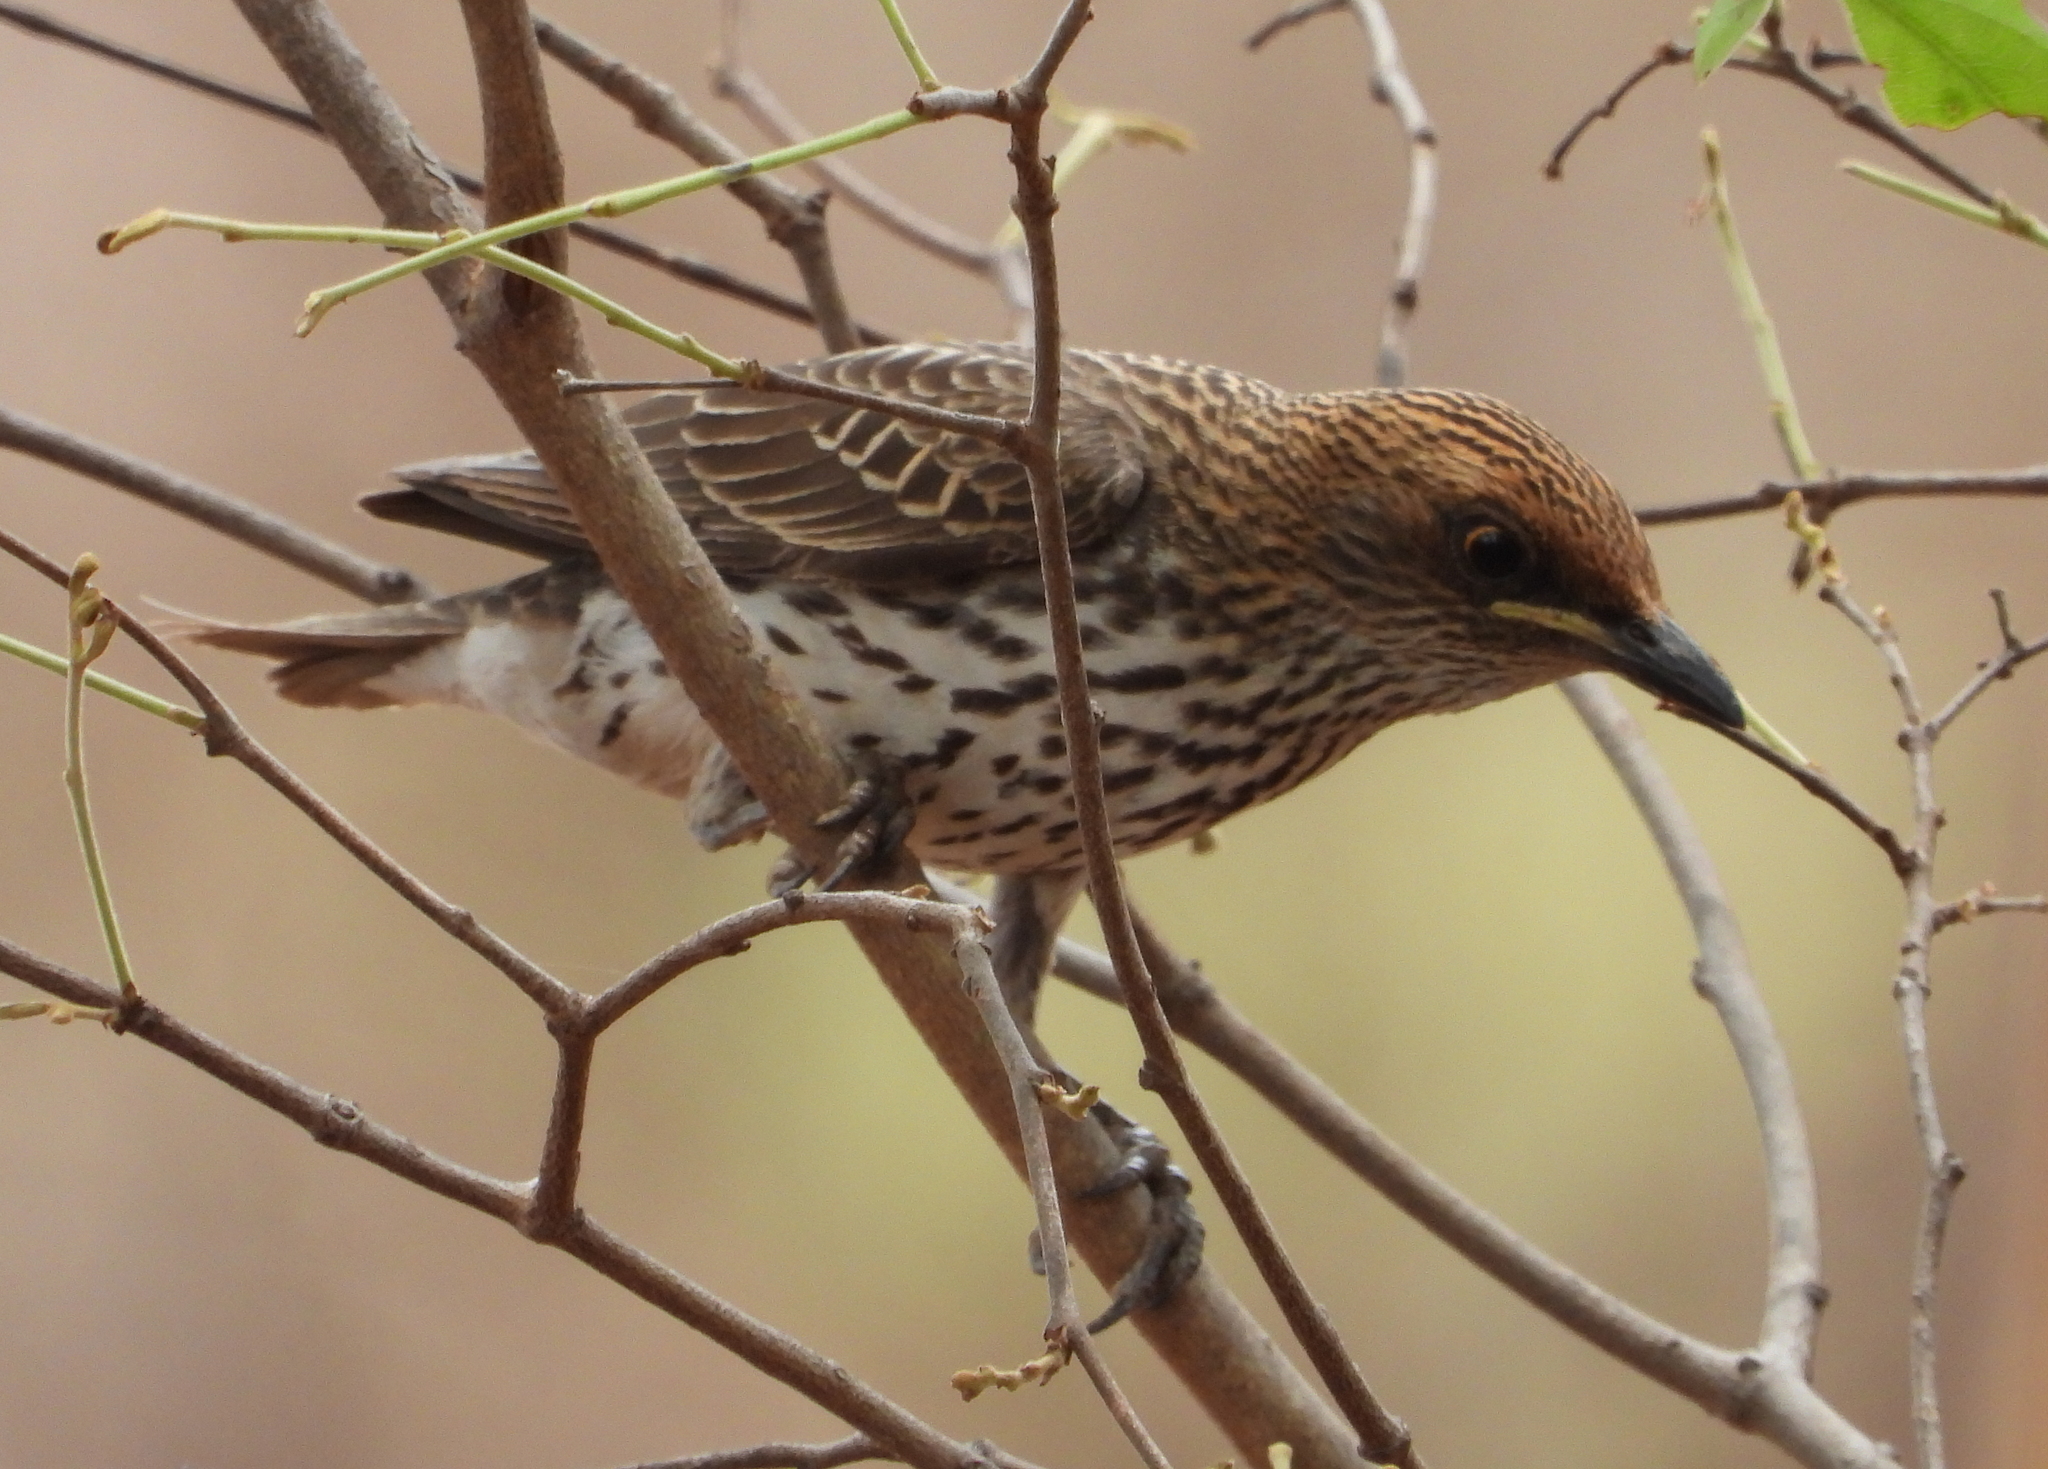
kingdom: Animalia
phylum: Chordata
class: Aves
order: Passeriformes
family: Sturnidae
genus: Cinnyricinclus
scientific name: Cinnyricinclus leucogaster
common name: Violet-backed starling
